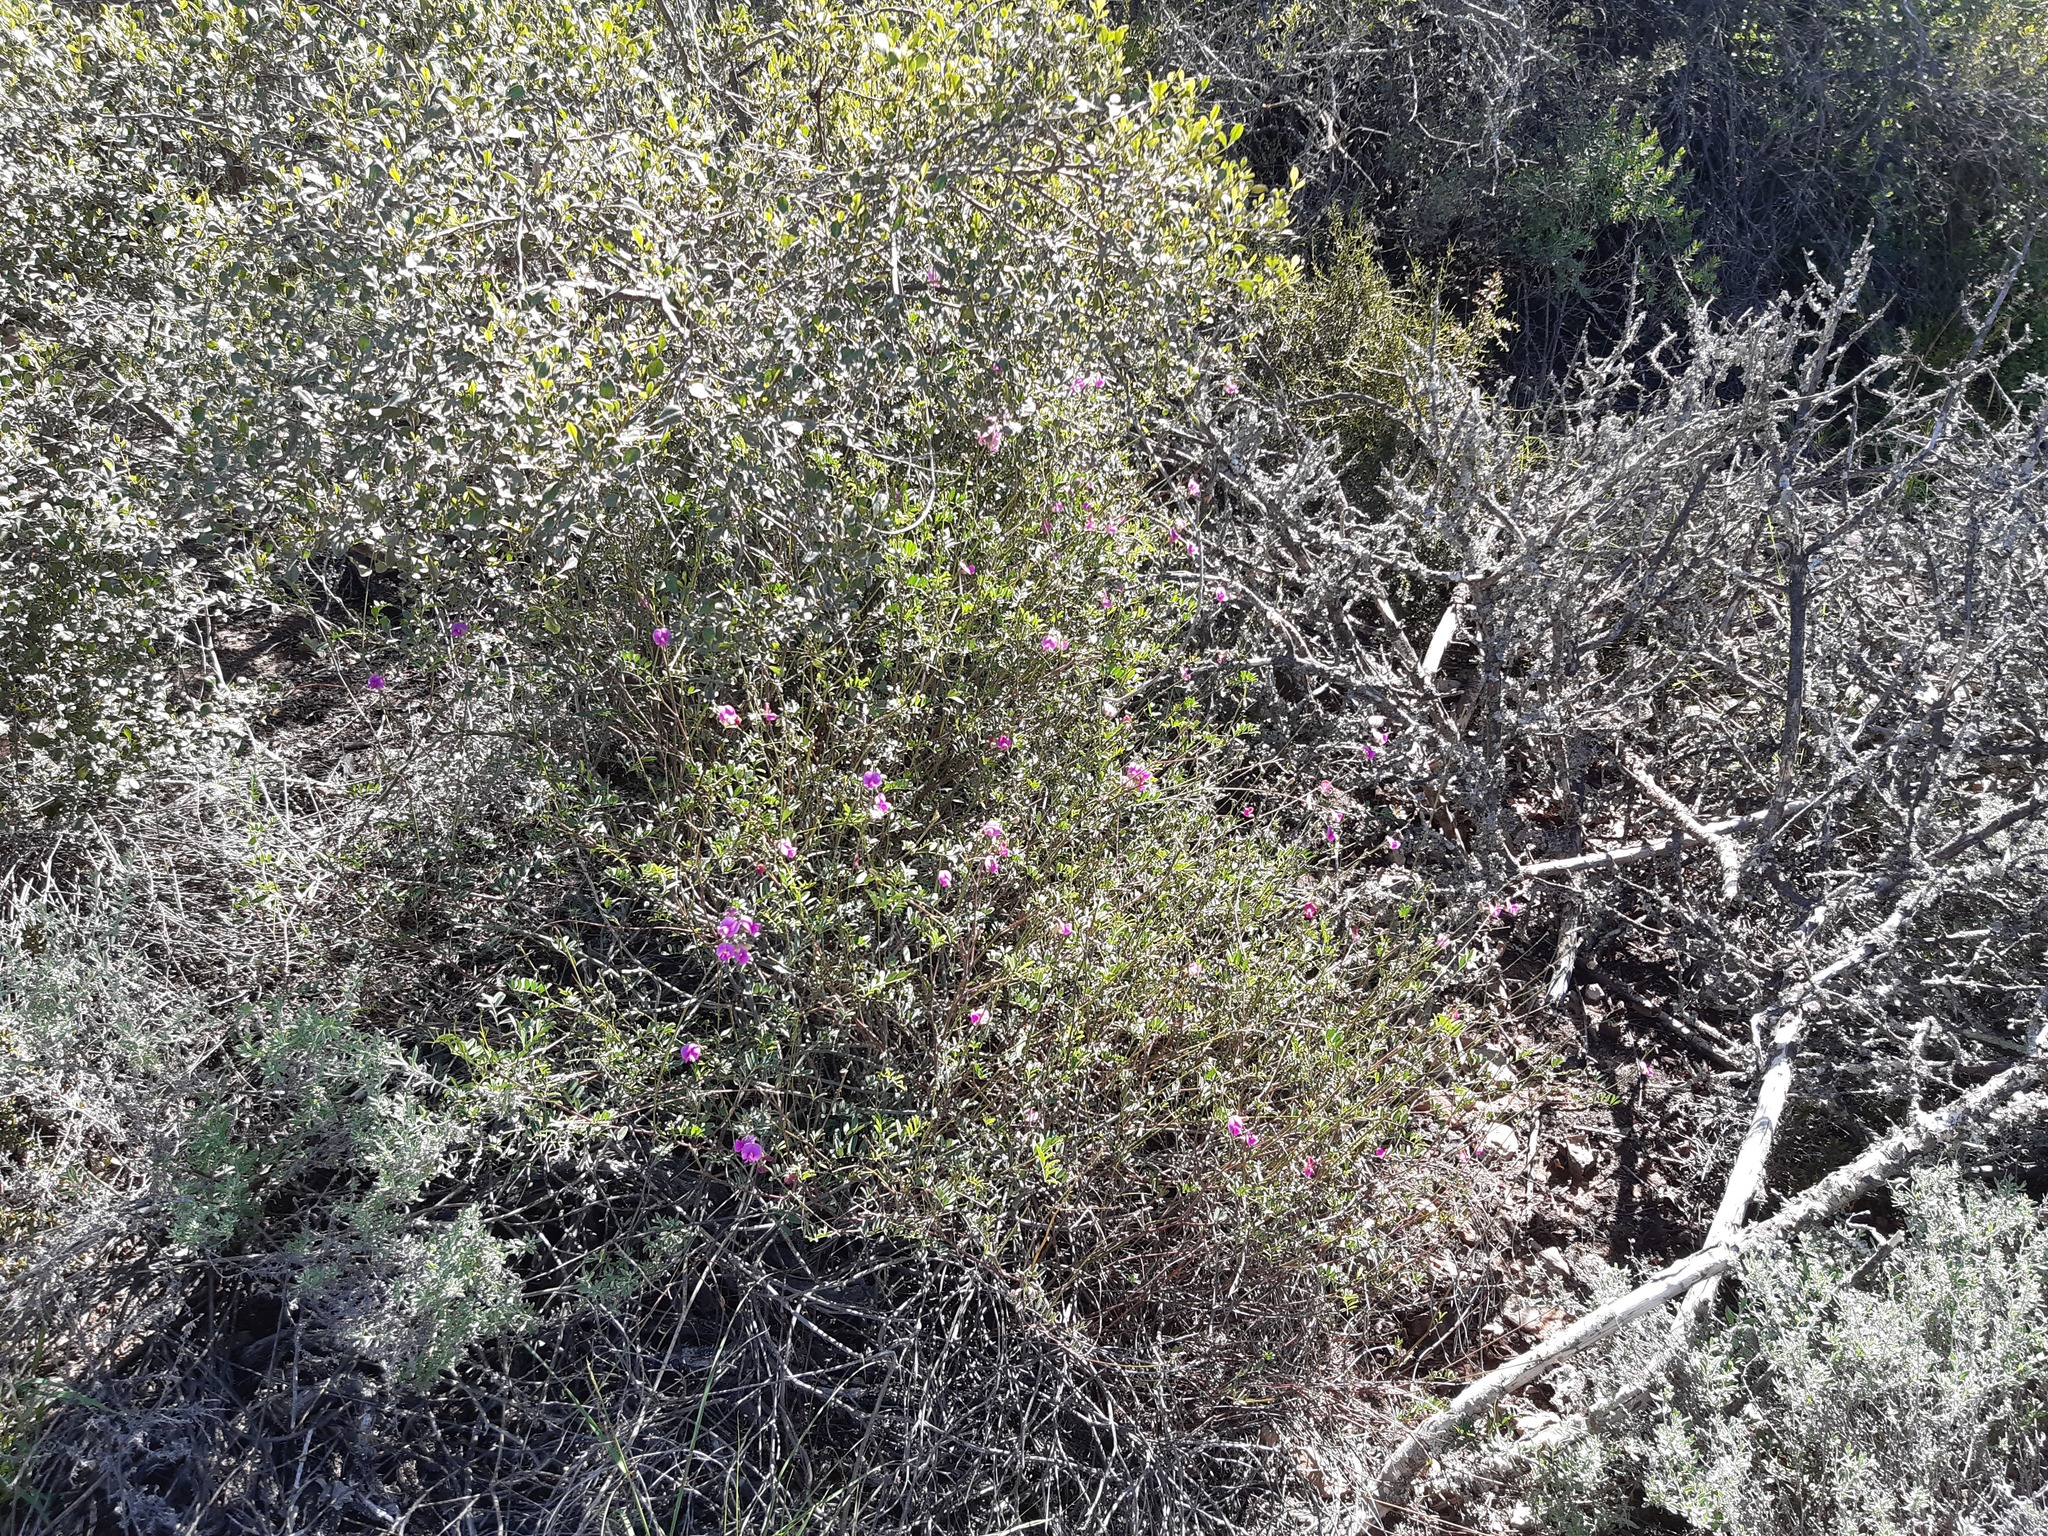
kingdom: Plantae
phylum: Tracheophyta
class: Magnoliopsida
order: Fabales
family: Fabaceae
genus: Tephrosia
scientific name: Tephrosia capensis
